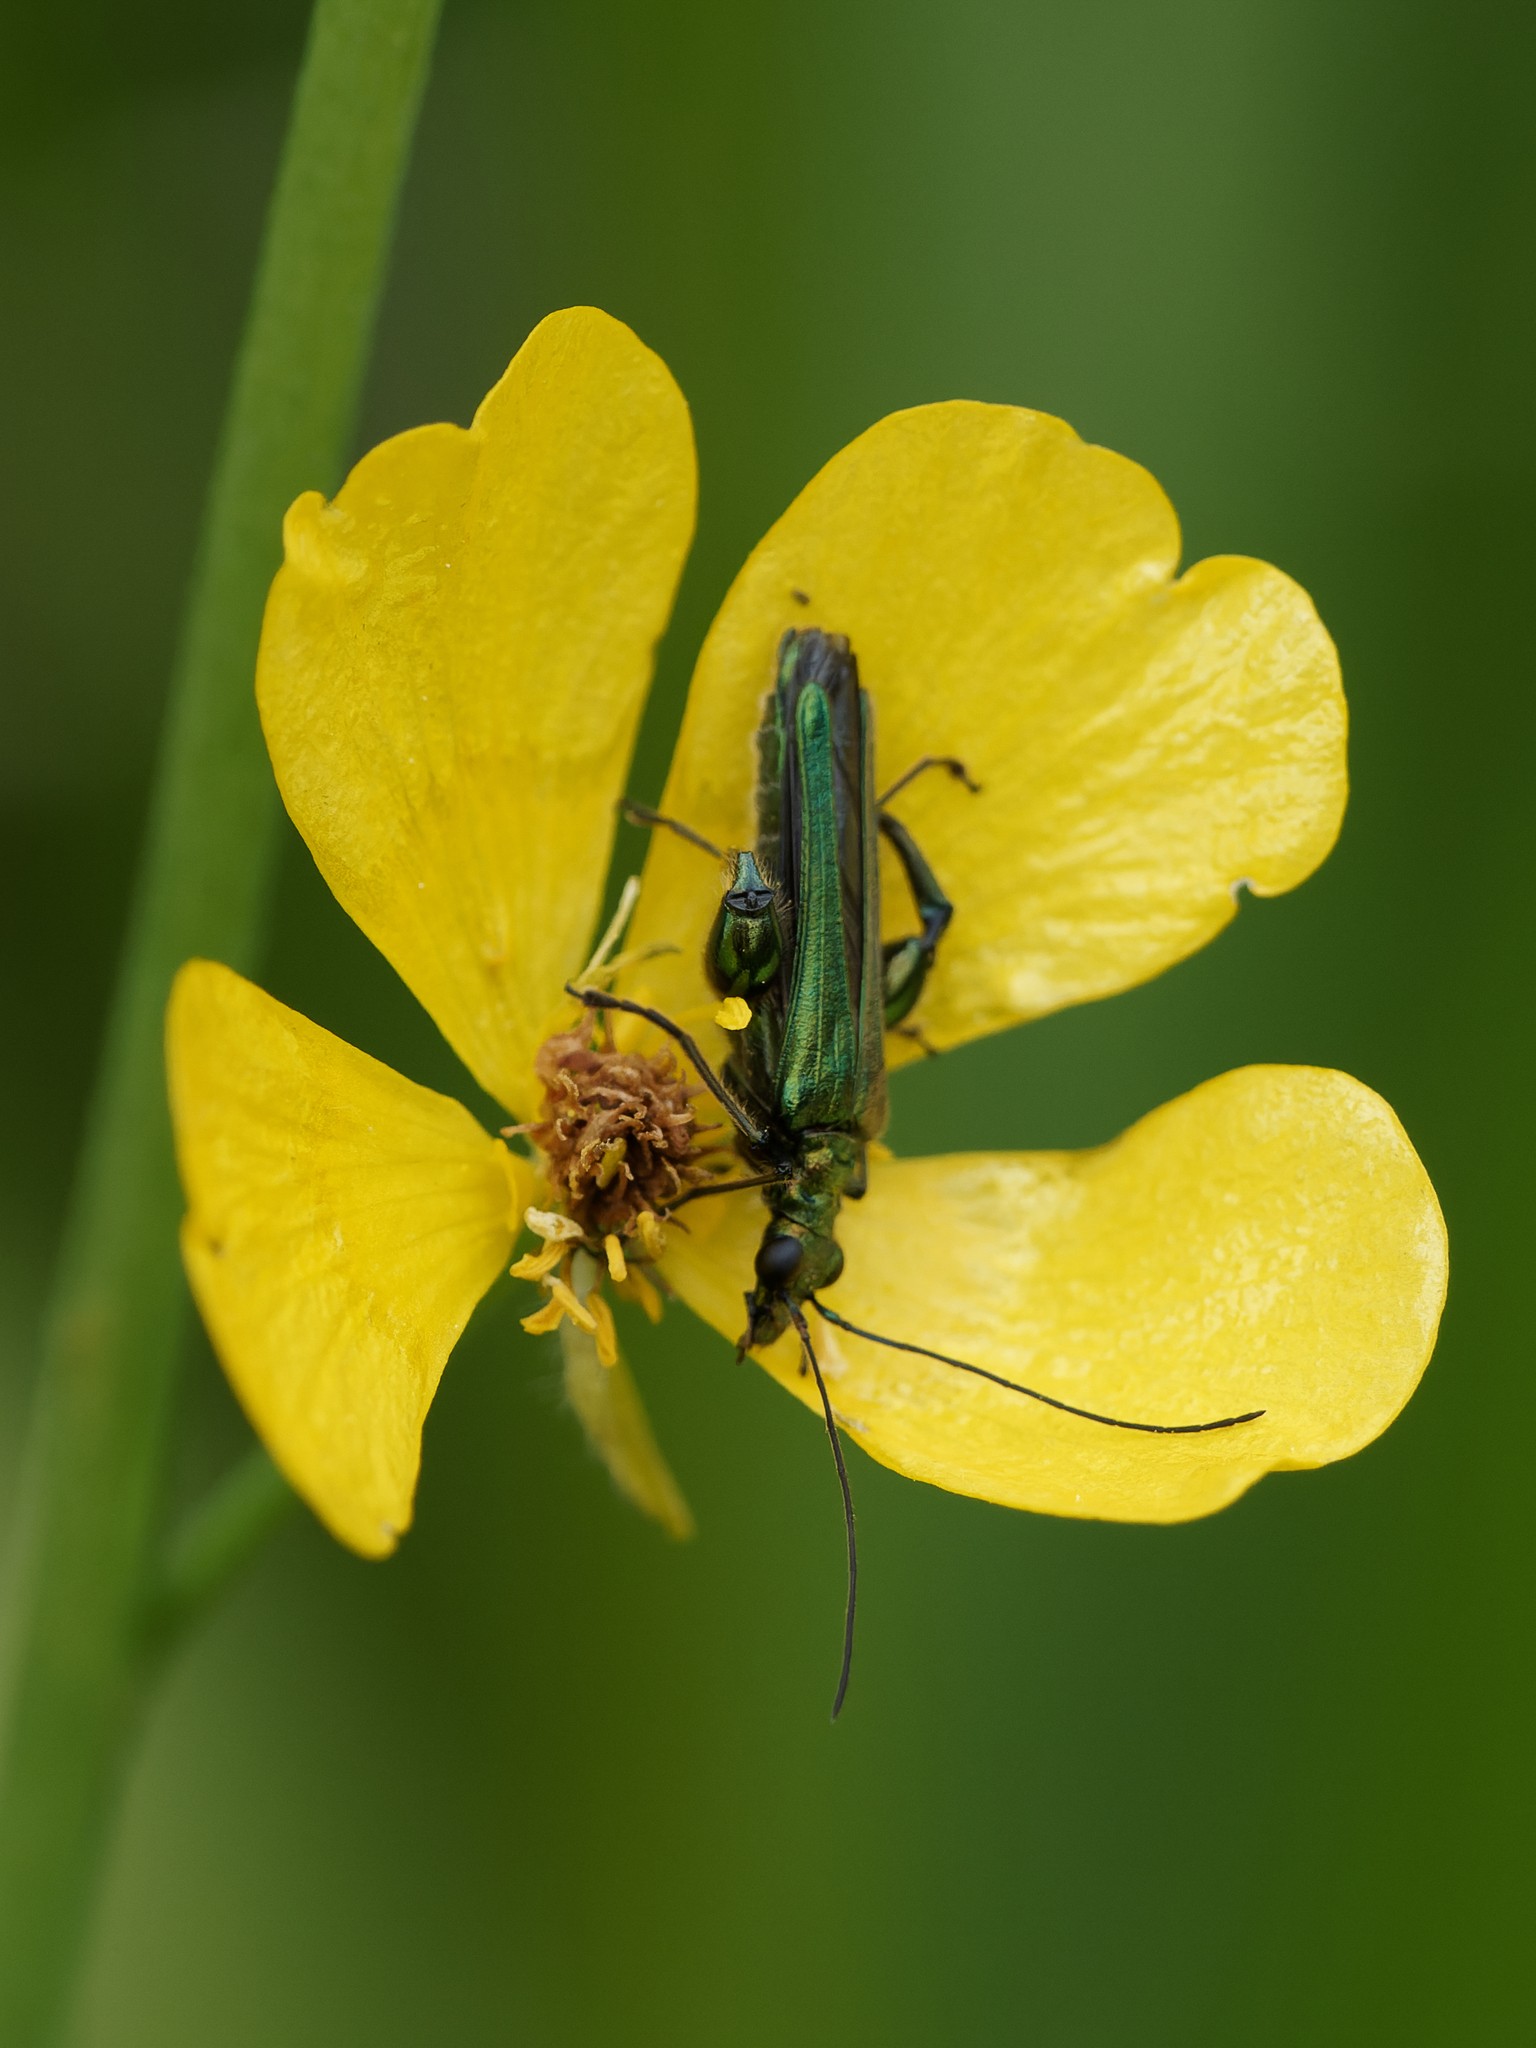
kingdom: Animalia
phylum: Arthropoda
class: Insecta
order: Coleoptera
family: Oedemeridae
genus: Oedemera
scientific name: Oedemera nobilis
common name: Swollen-thighed beetle
